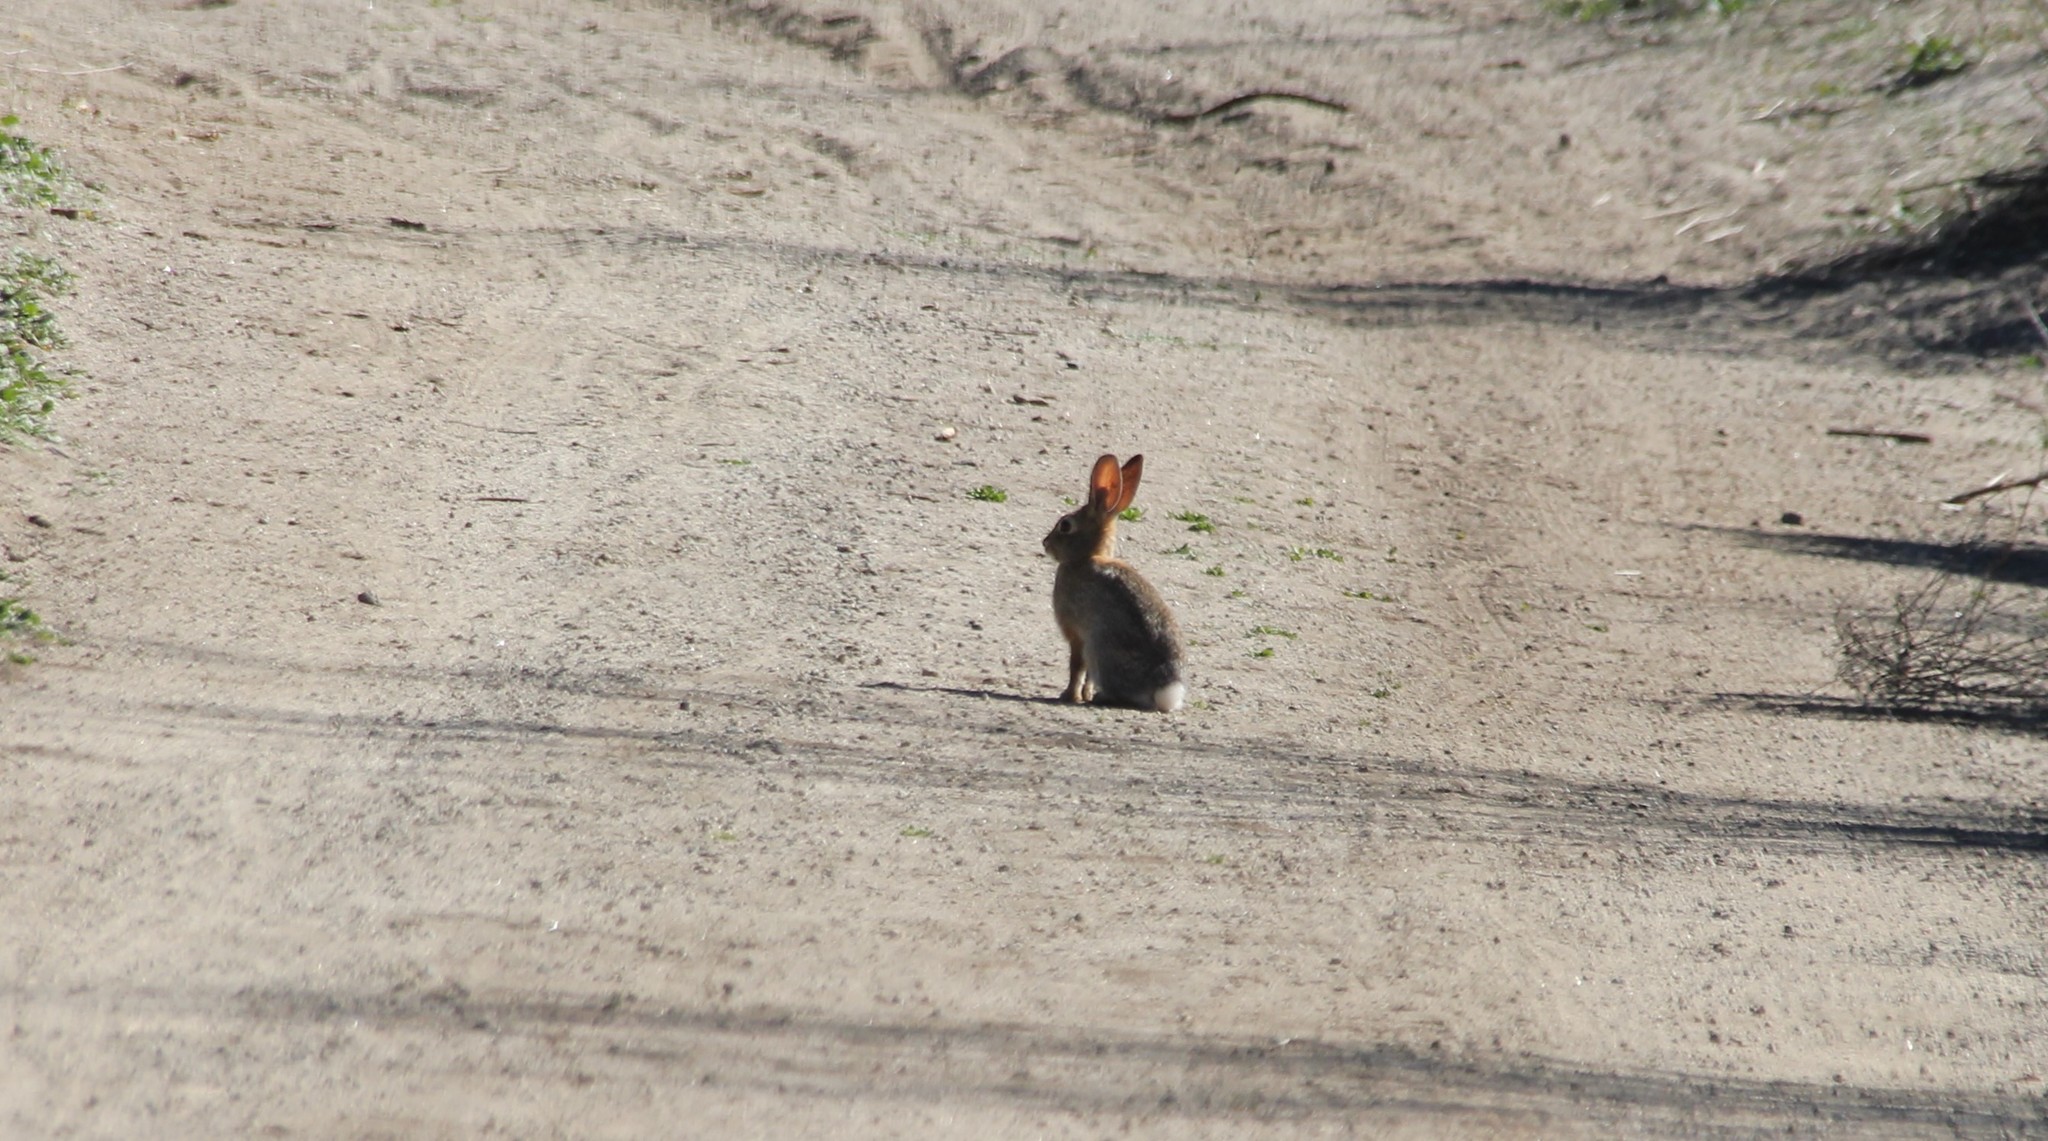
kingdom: Animalia
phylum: Chordata
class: Mammalia
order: Lagomorpha
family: Leporidae
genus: Sylvilagus
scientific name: Sylvilagus audubonii
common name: Desert cottontail
